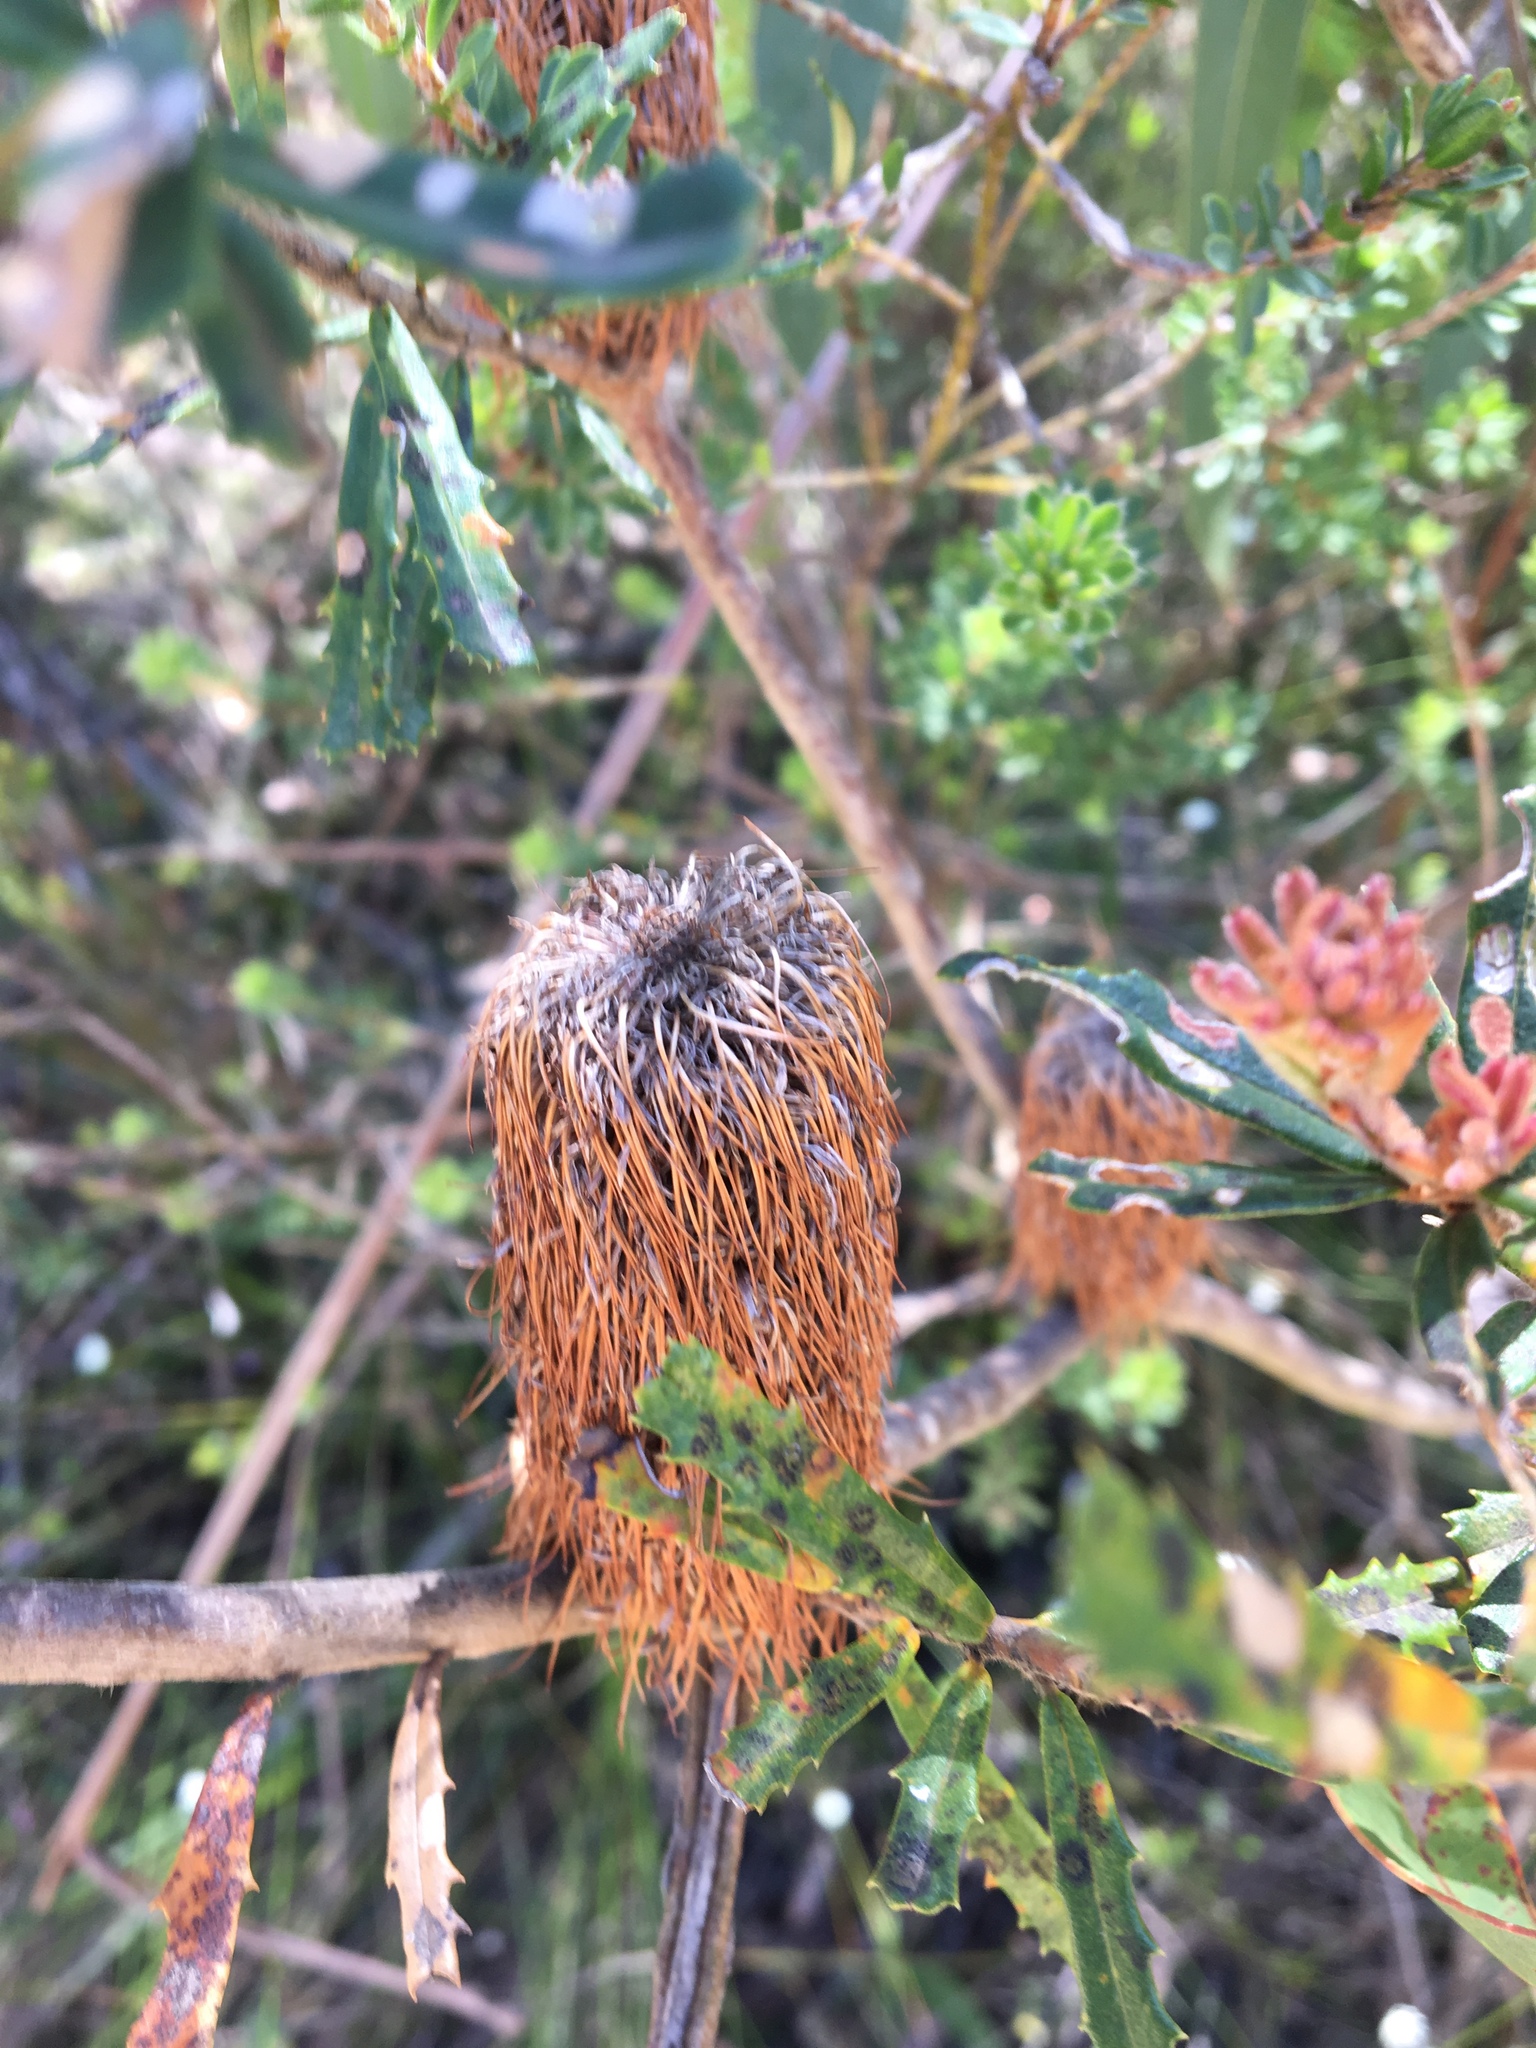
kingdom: Plantae
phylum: Tracheophyta
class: Magnoliopsida
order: Proteales
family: Proteaceae
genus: Banksia
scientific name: Banksia oblongifolia
